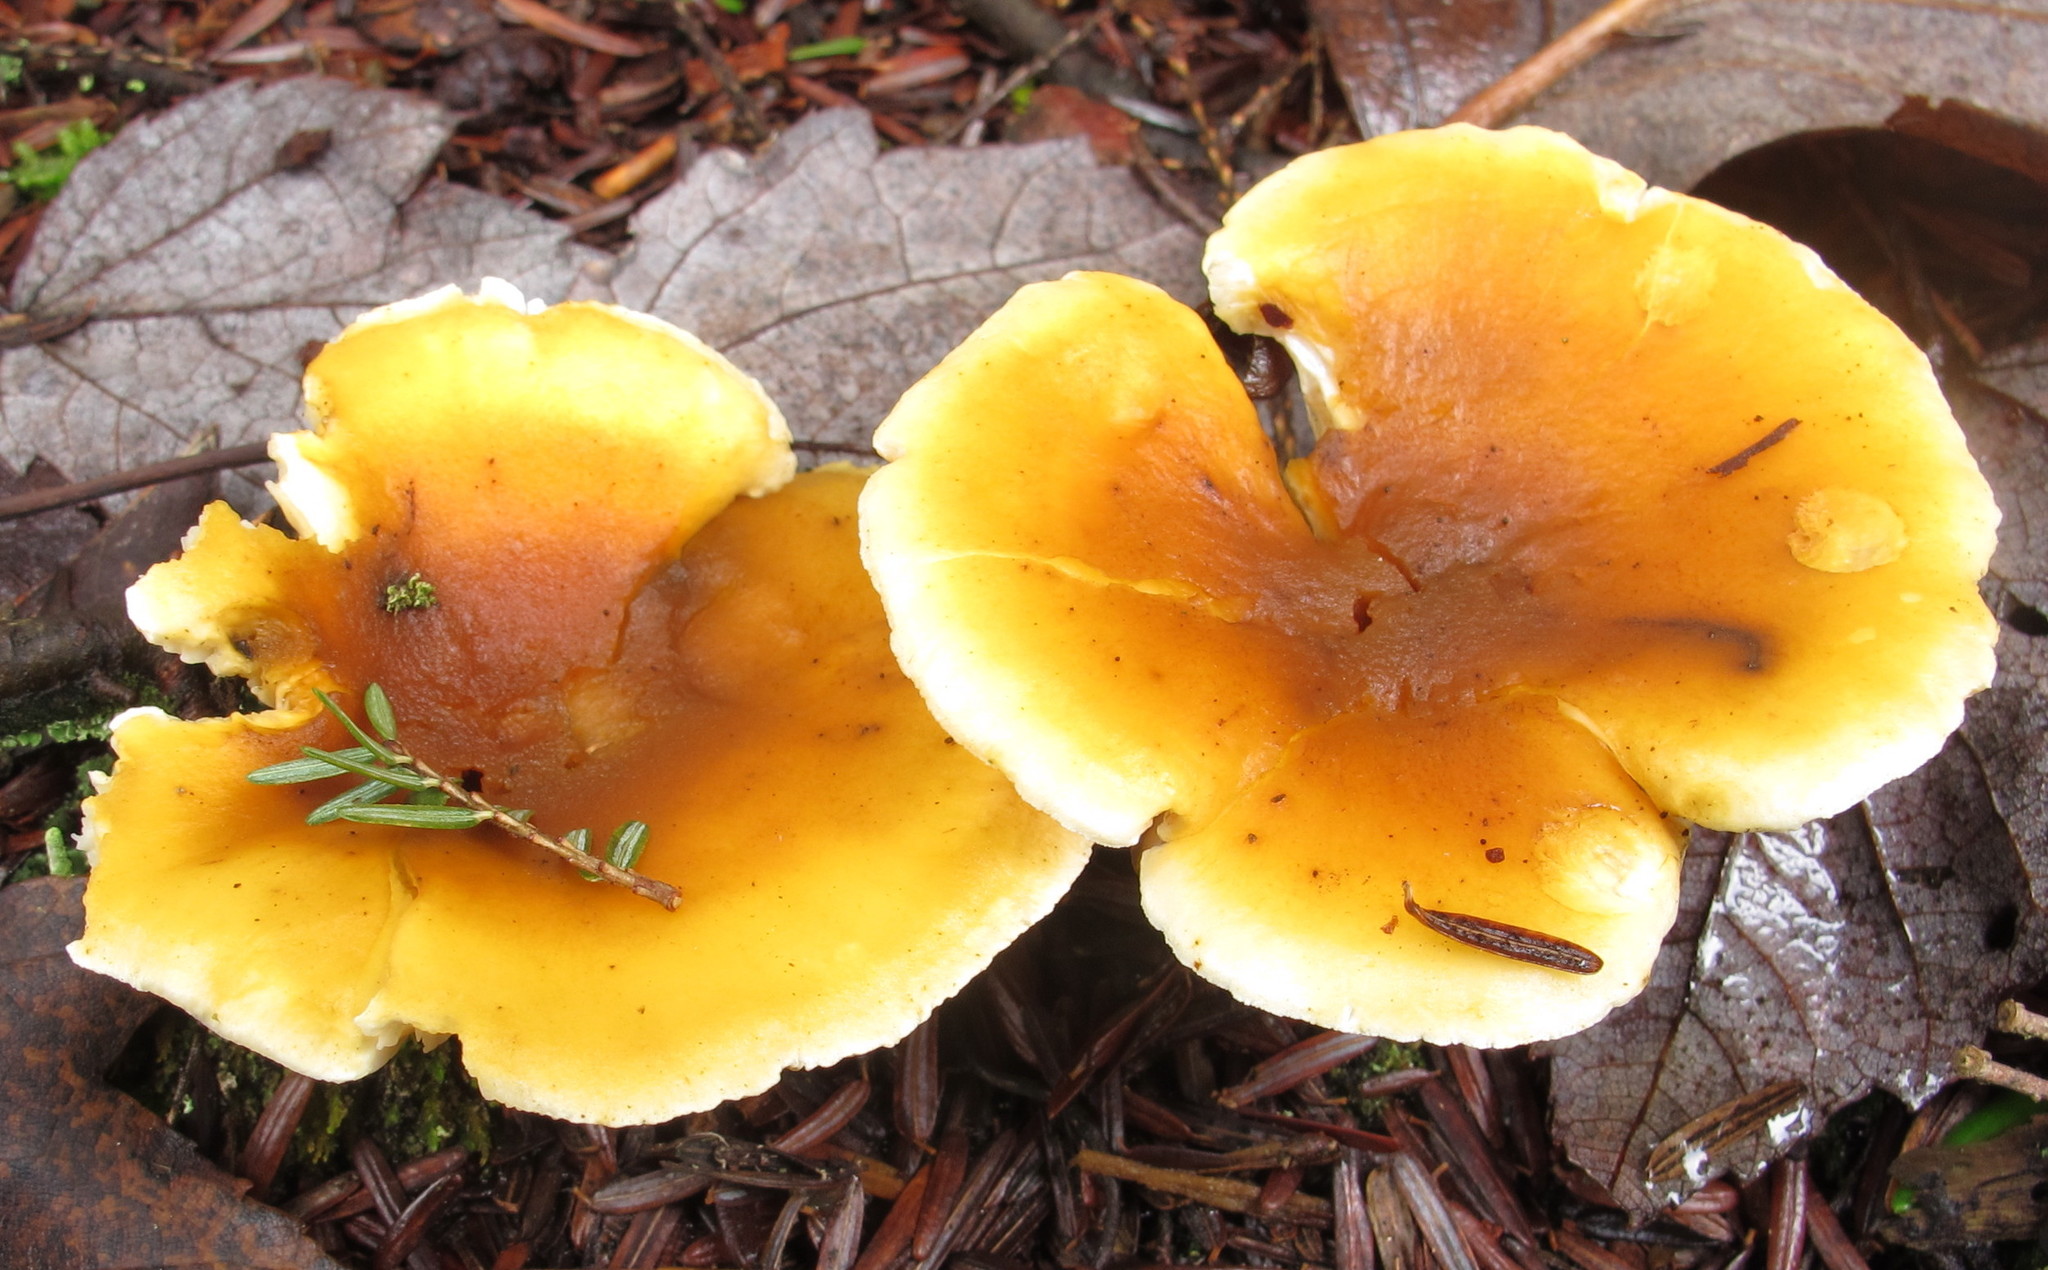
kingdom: Fungi
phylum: Basidiomycota
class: Agaricomycetes
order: Boletales
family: Hygrophoropsidaceae
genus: Hygrophoropsis
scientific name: Hygrophoropsis aurantiaca
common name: False chanterelle
